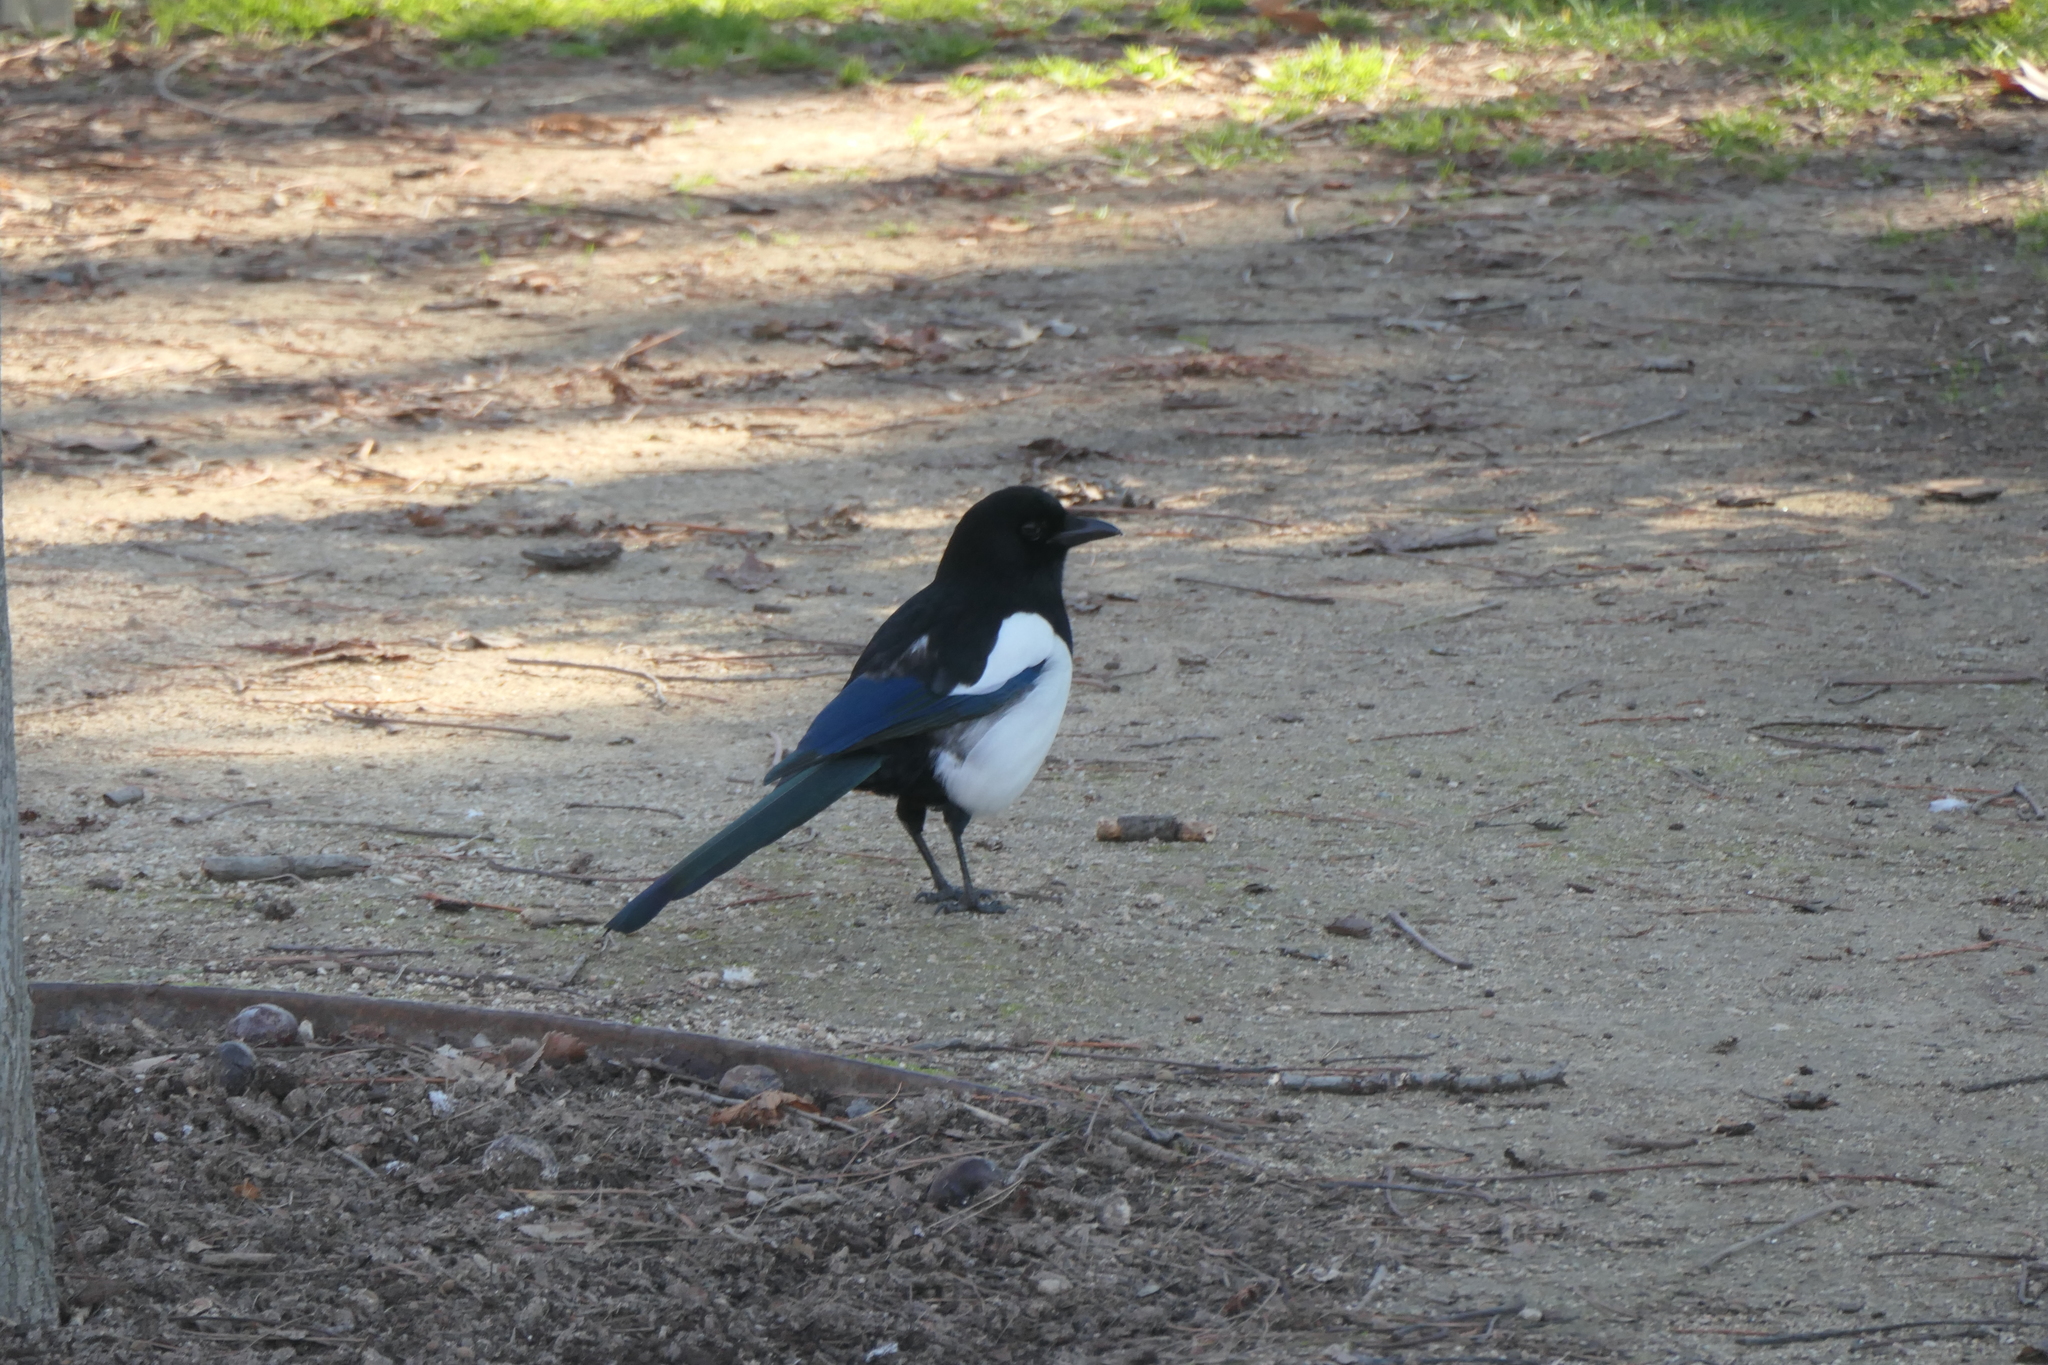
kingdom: Animalia
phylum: Chordata
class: Aves
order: Passeriformes
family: Corvidae
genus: Pica
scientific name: Pica pica
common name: Eurasian magpie
